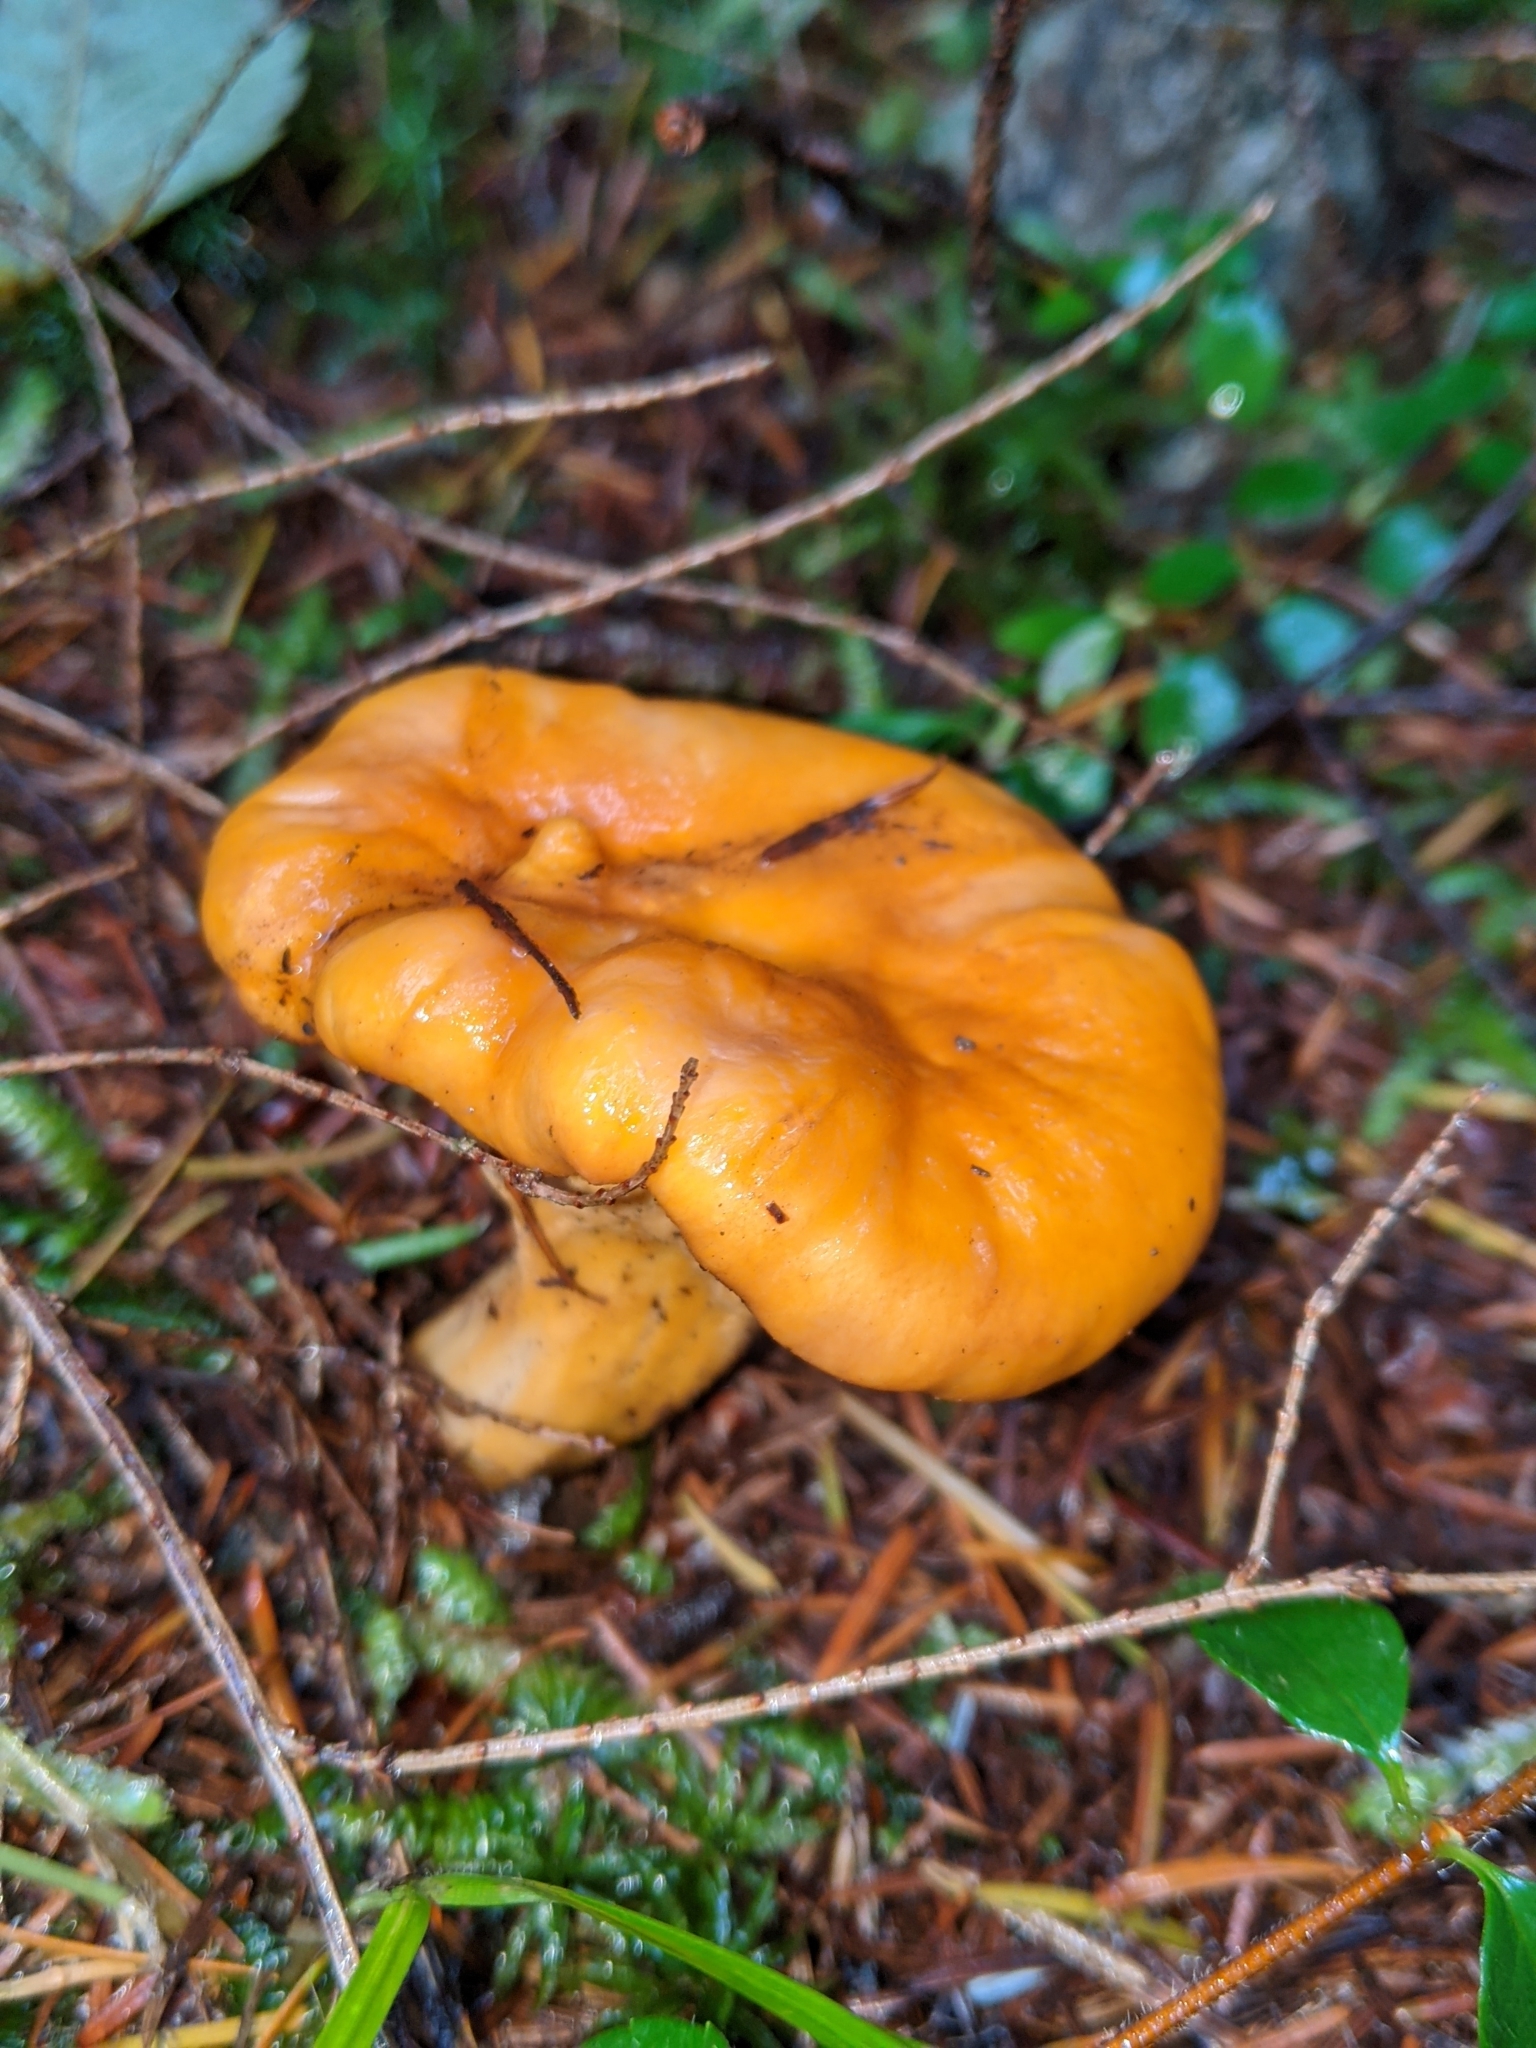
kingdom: Fungi
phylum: Basidiomycota
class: Agaricomycetes
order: Cantharellales
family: Hydnaceae
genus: Cantharellus
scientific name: Cantharellus formosus
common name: Pacific golden chanterelle
